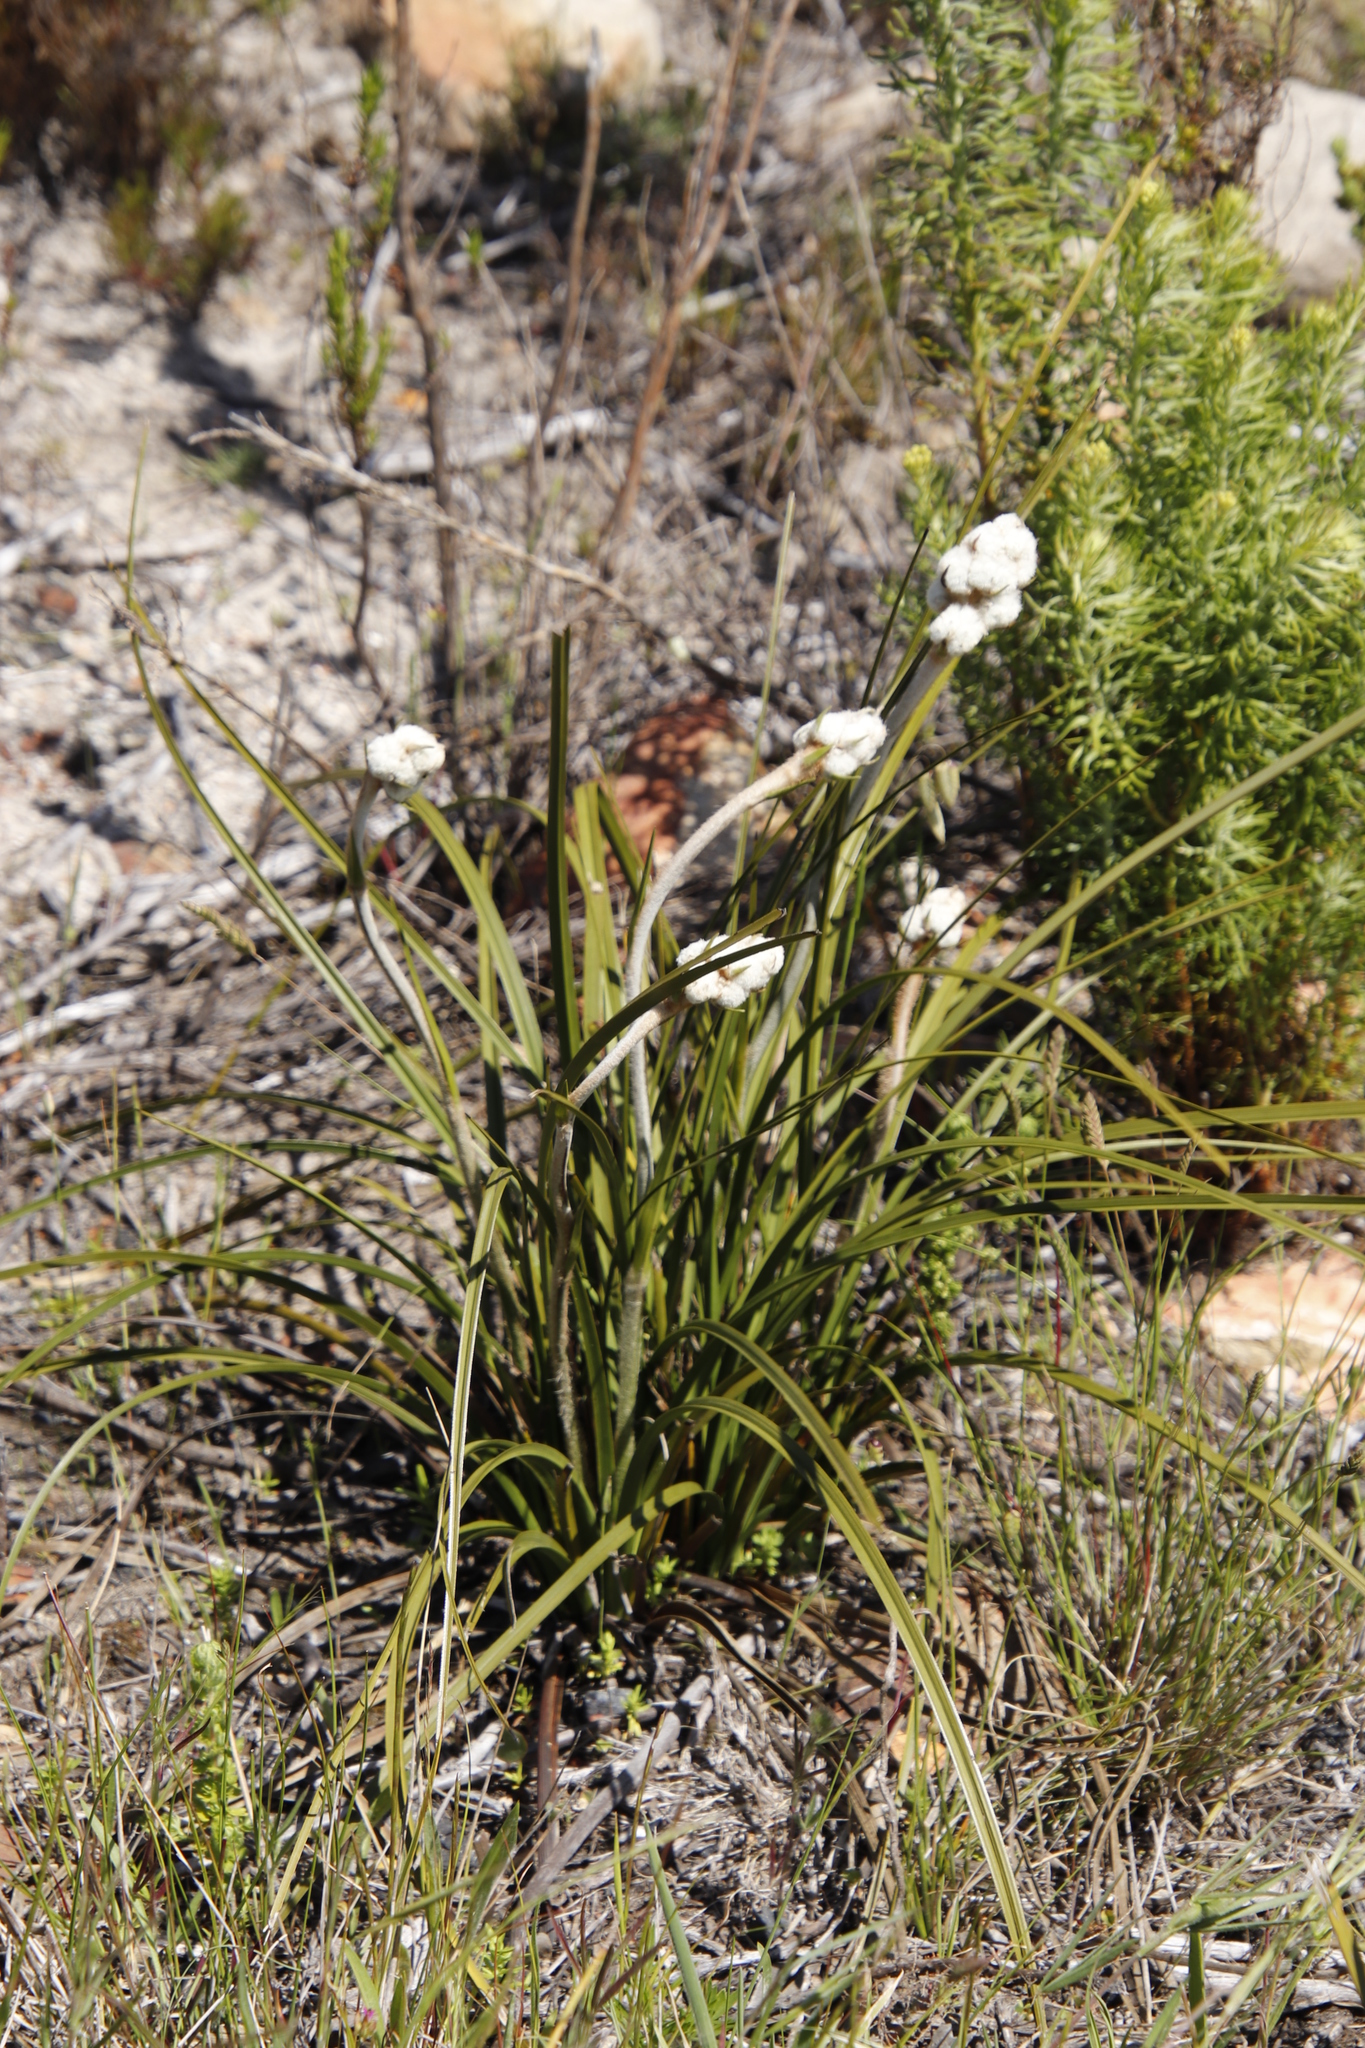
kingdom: Plantae
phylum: Tracheophyta
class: Liliopsida
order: Asparagales
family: Lanariaceae
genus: Lanaria
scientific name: Lanaria lanata
